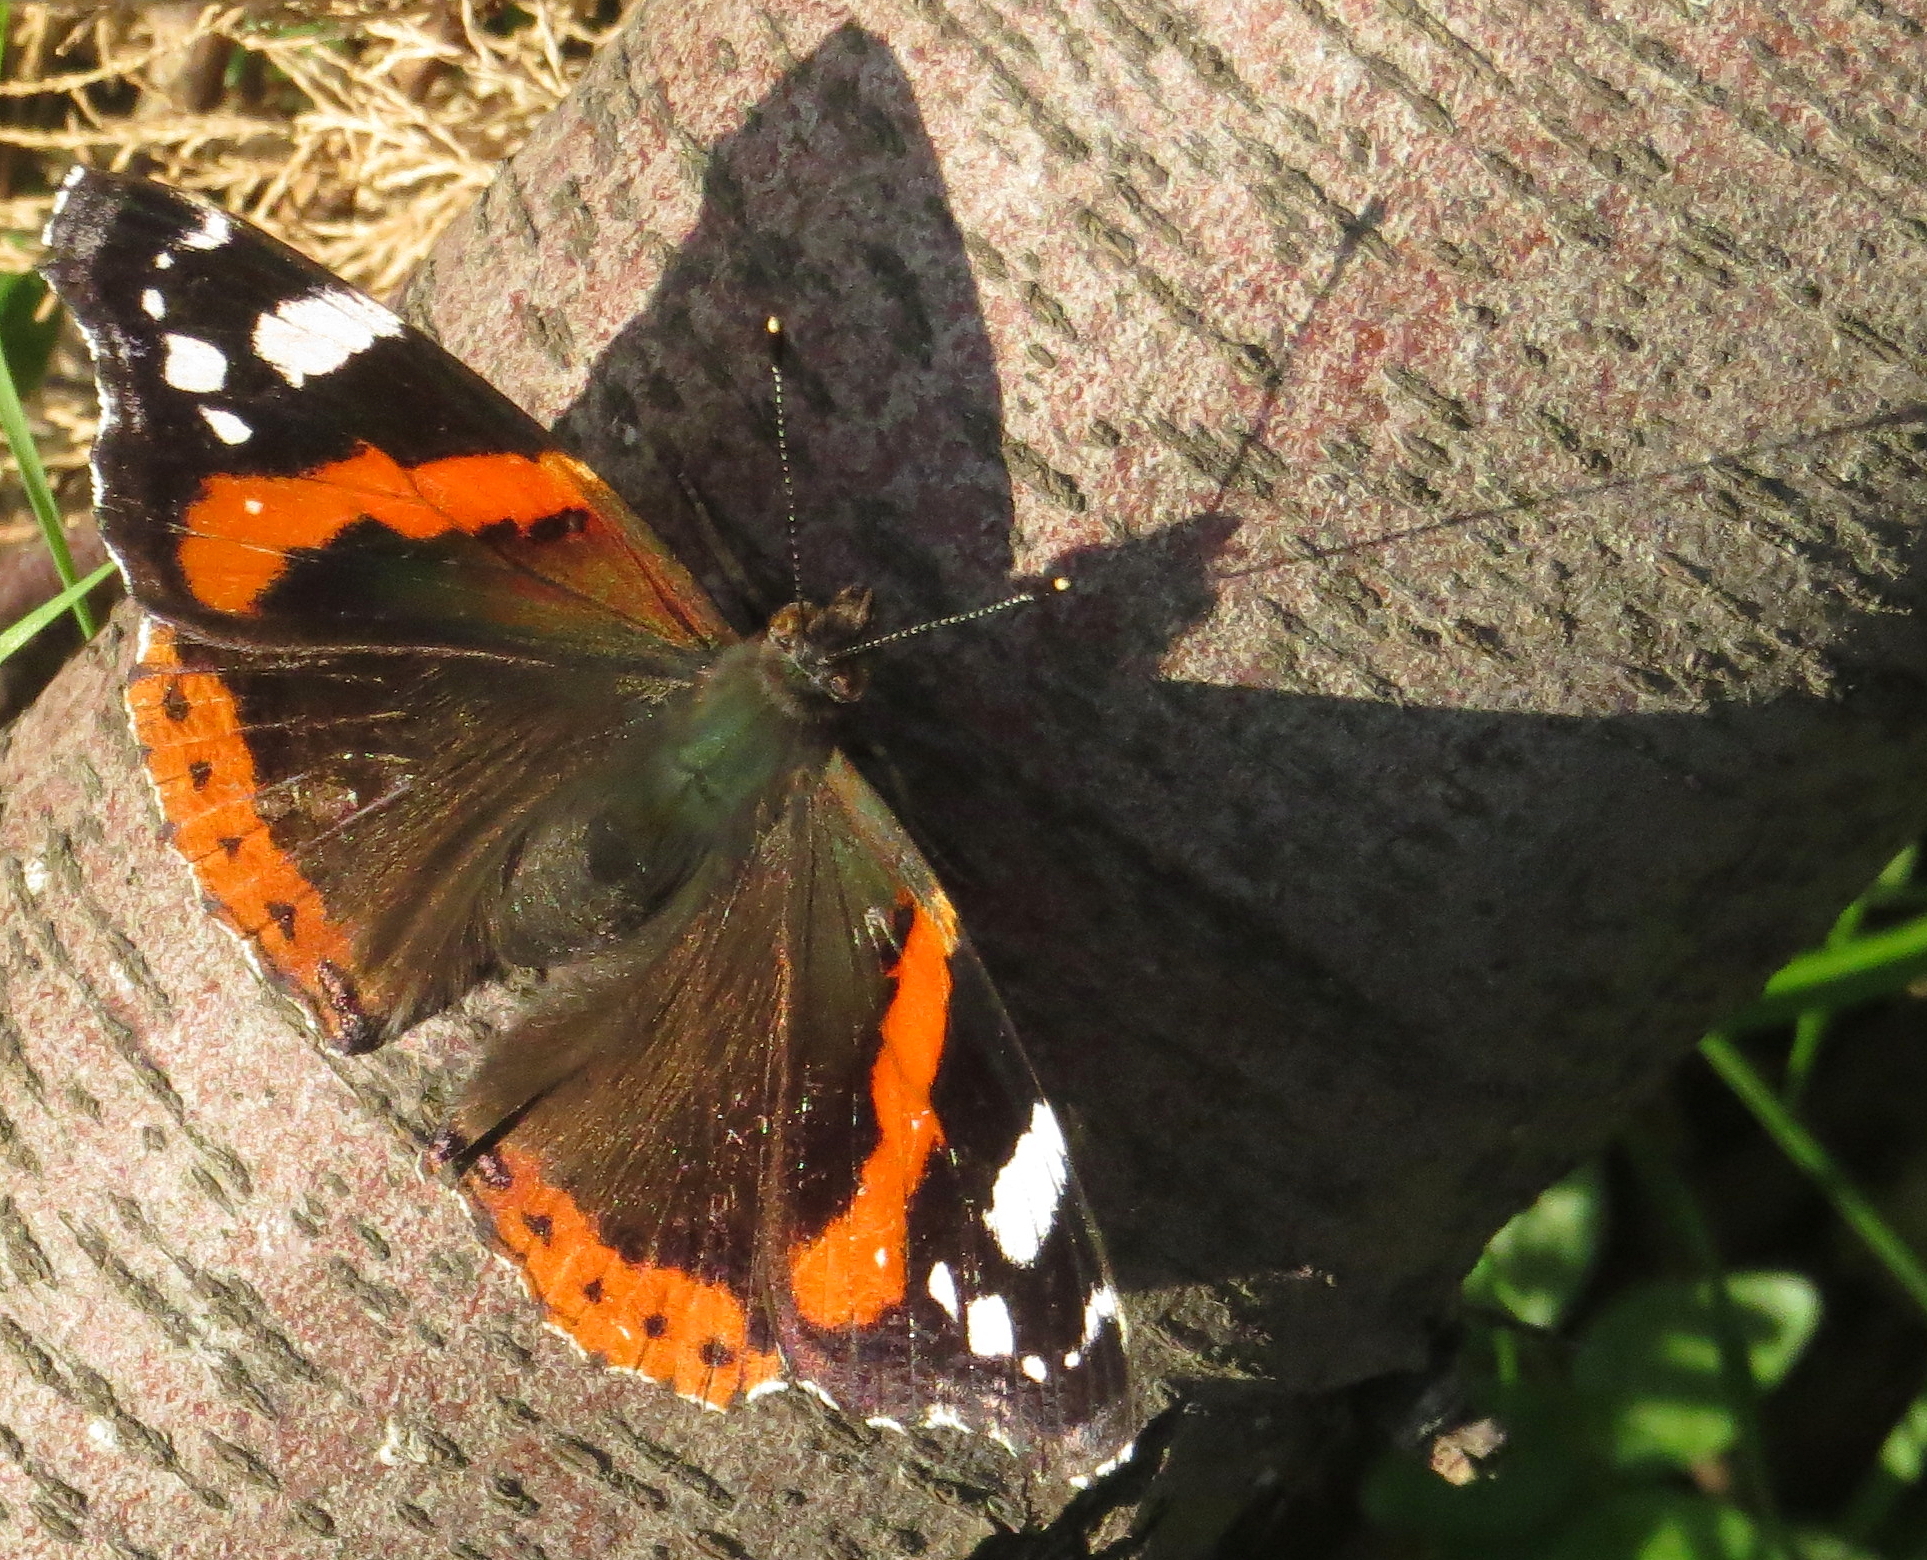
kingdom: Animalia
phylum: Arthropoda
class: Insecta
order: Lepidoptera
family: Nymphalidae
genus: Vanessa
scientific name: Vanessa atalanta
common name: Red admiral
